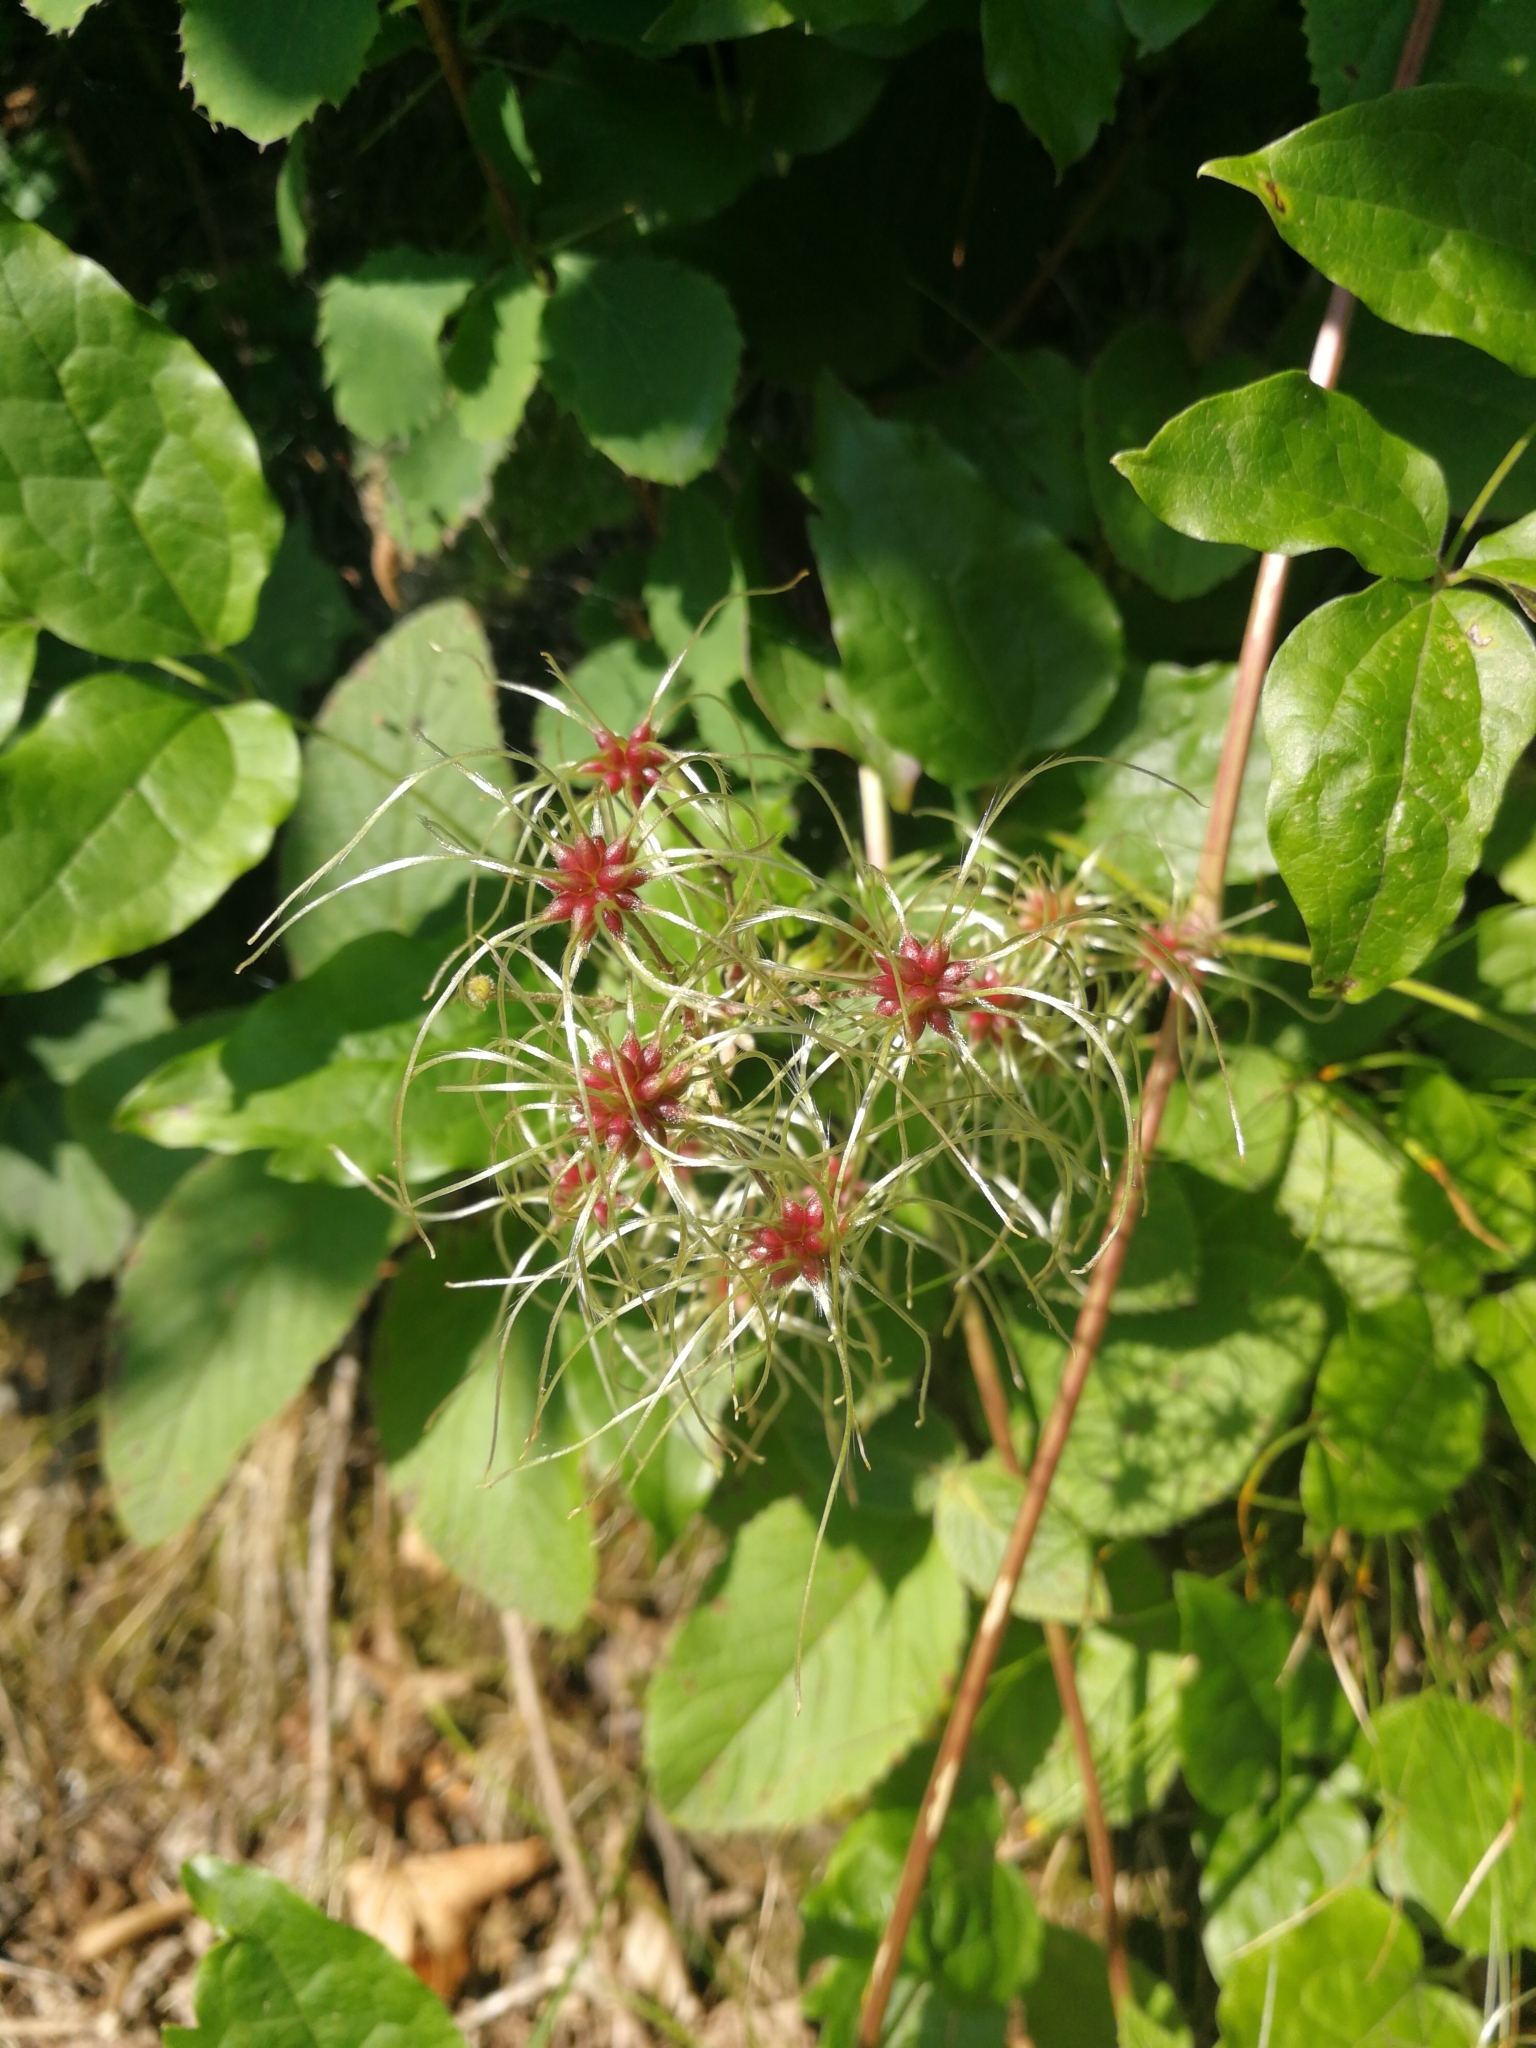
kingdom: Plantae
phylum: Tracheophyta
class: Magnoliopsida
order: Ranunculales
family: Ranunculaceae
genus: Clematis
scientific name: Clematis vitalba
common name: Evergreen clematis
